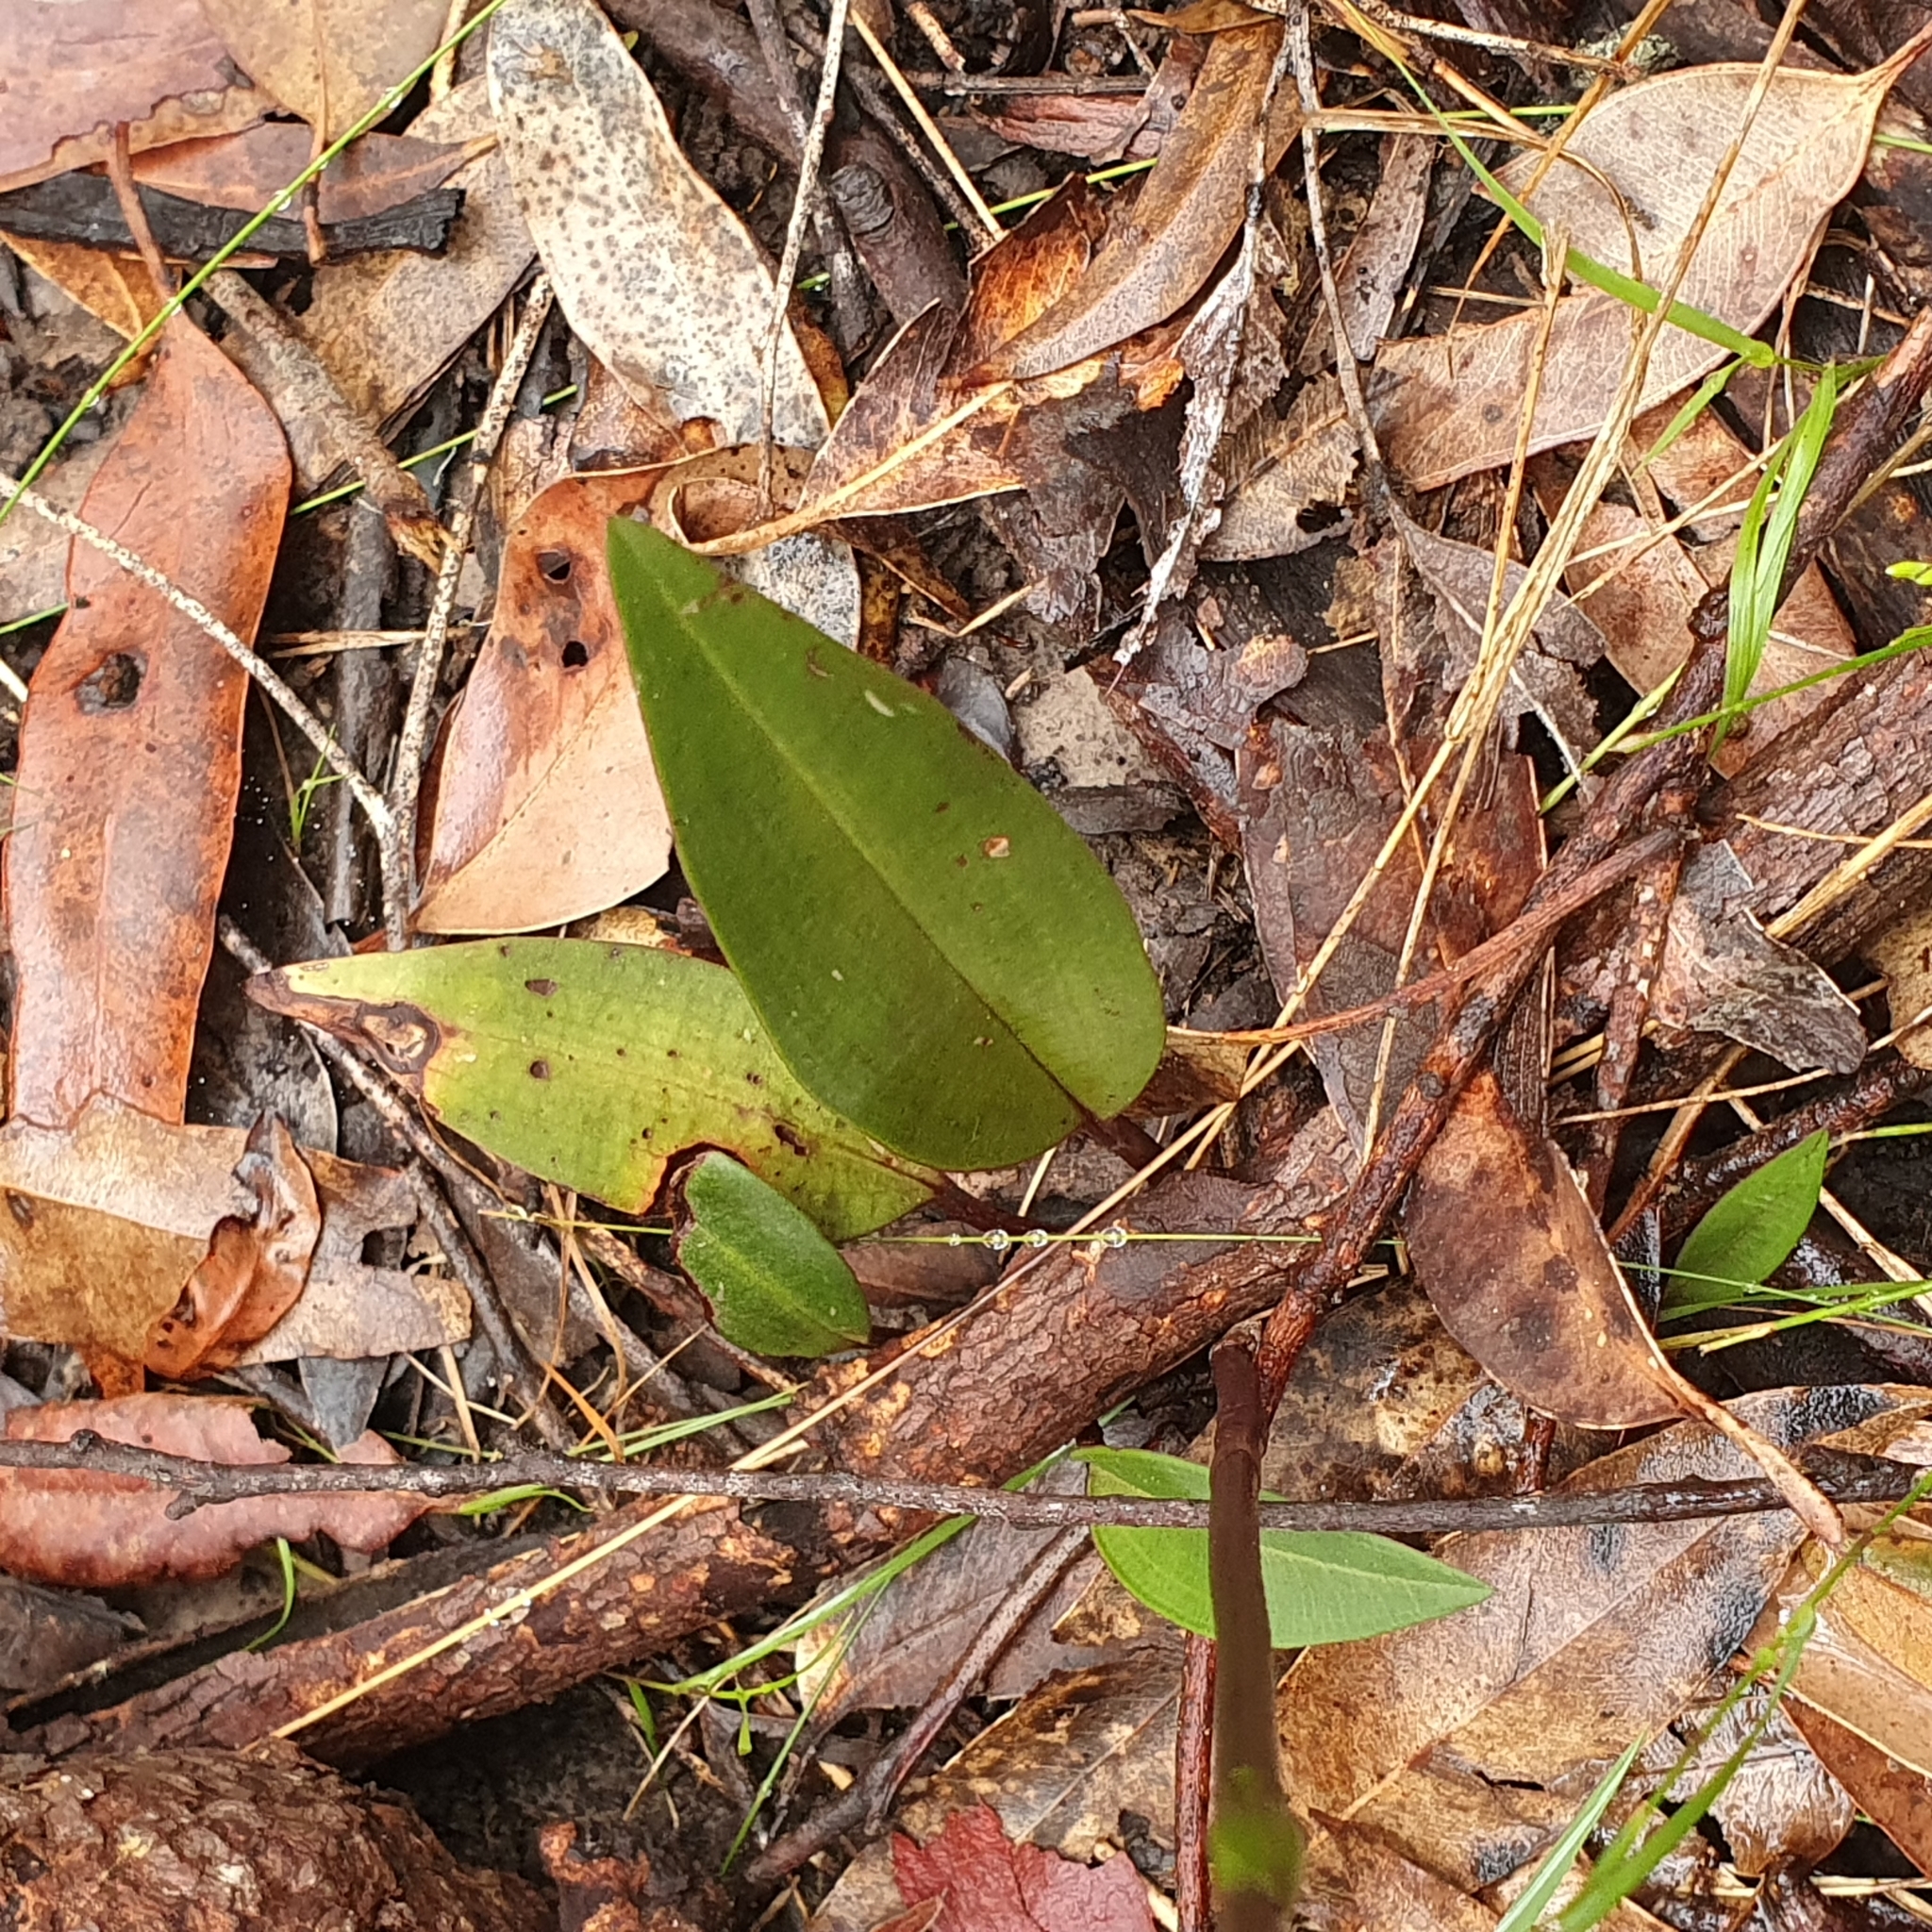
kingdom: Plantae
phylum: Tracheophyta
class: Liliopsida
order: Asparagales
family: Orchidaceae
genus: Cryptostylis
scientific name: Cryptostylis erecta
